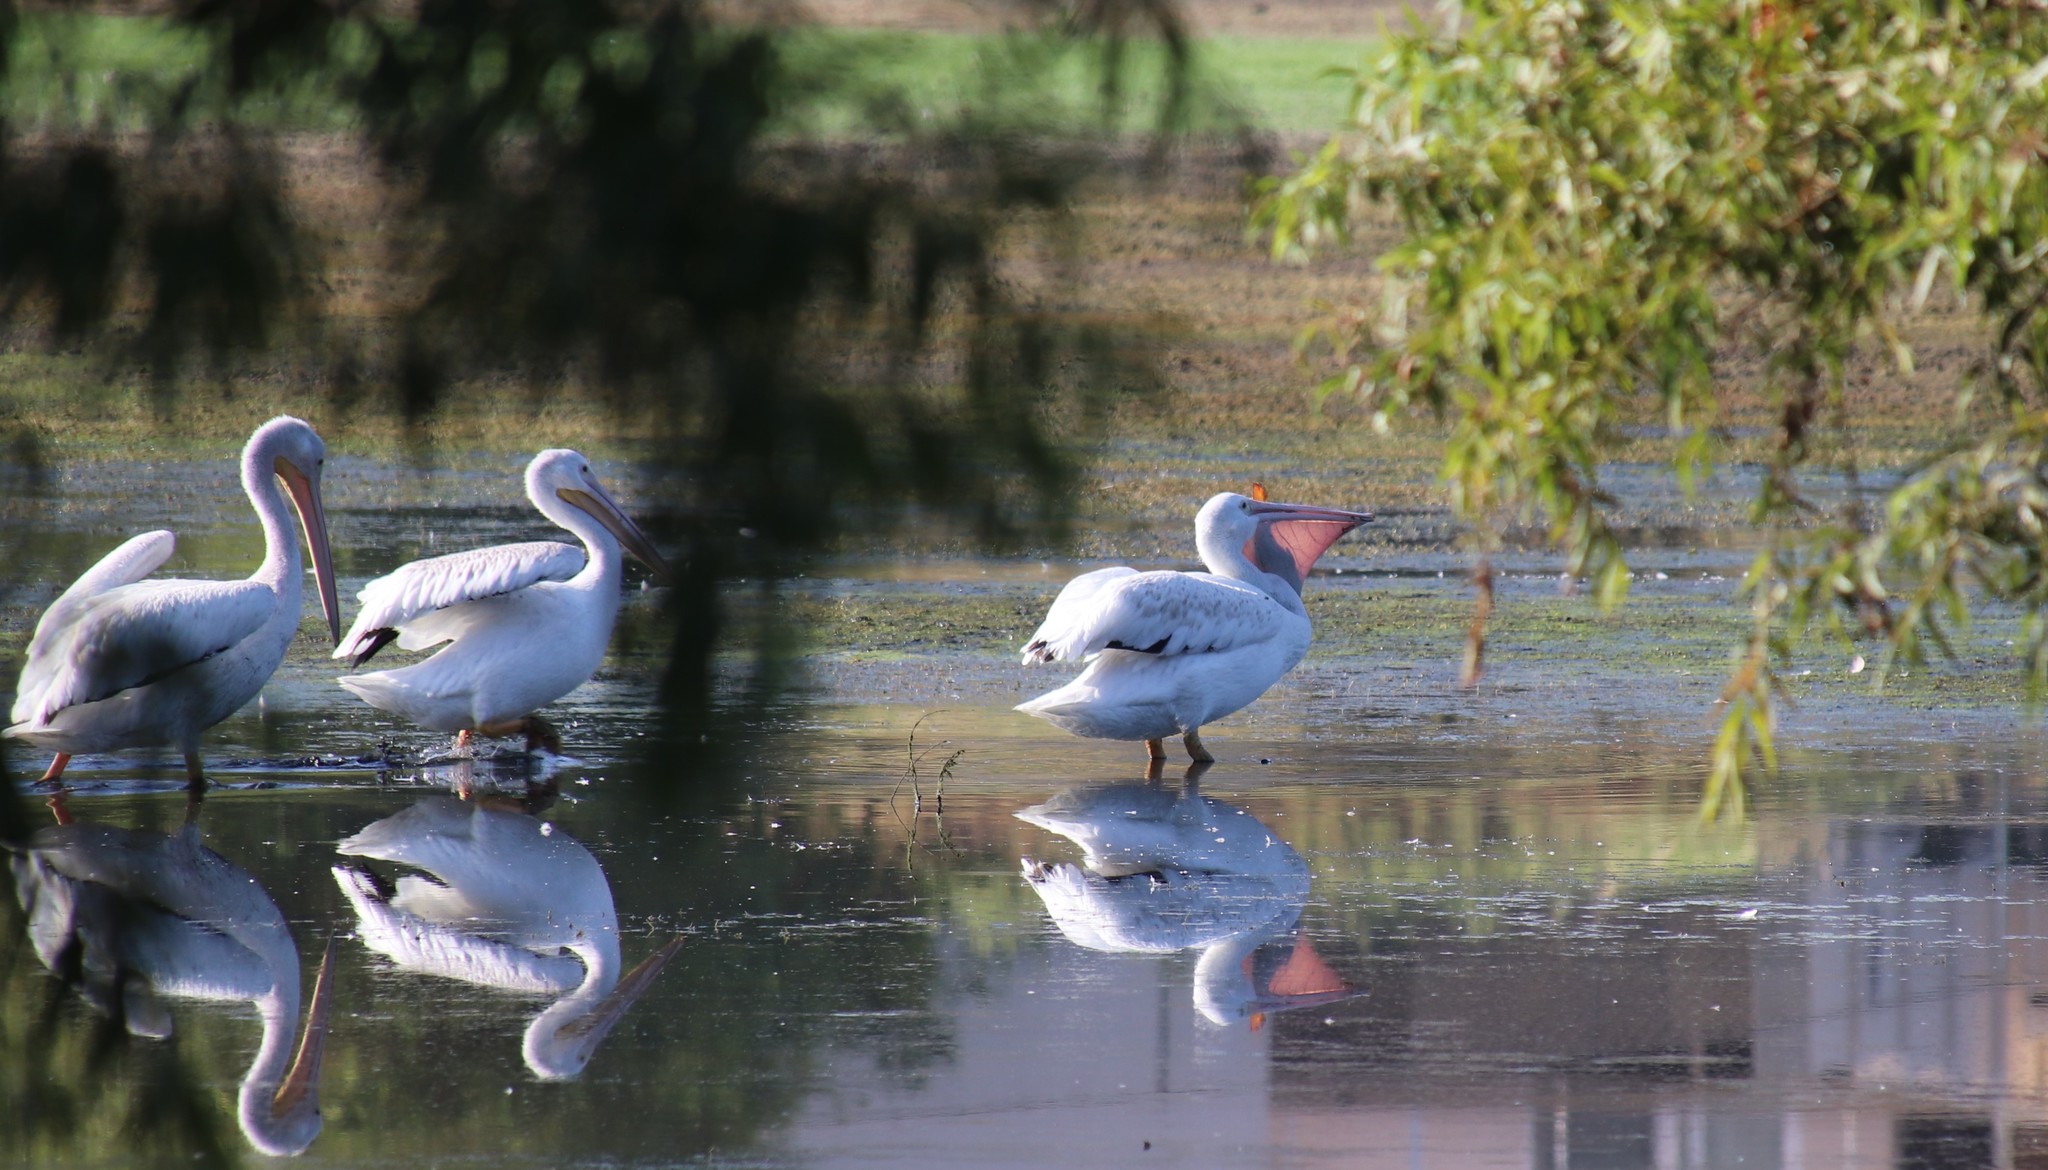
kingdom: Animalia
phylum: Chordata
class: Aves
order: Pelecaniformes
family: Pelecanidae
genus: Pelecanus
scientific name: Pelecanus erythrorhynchos
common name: American white pelican
